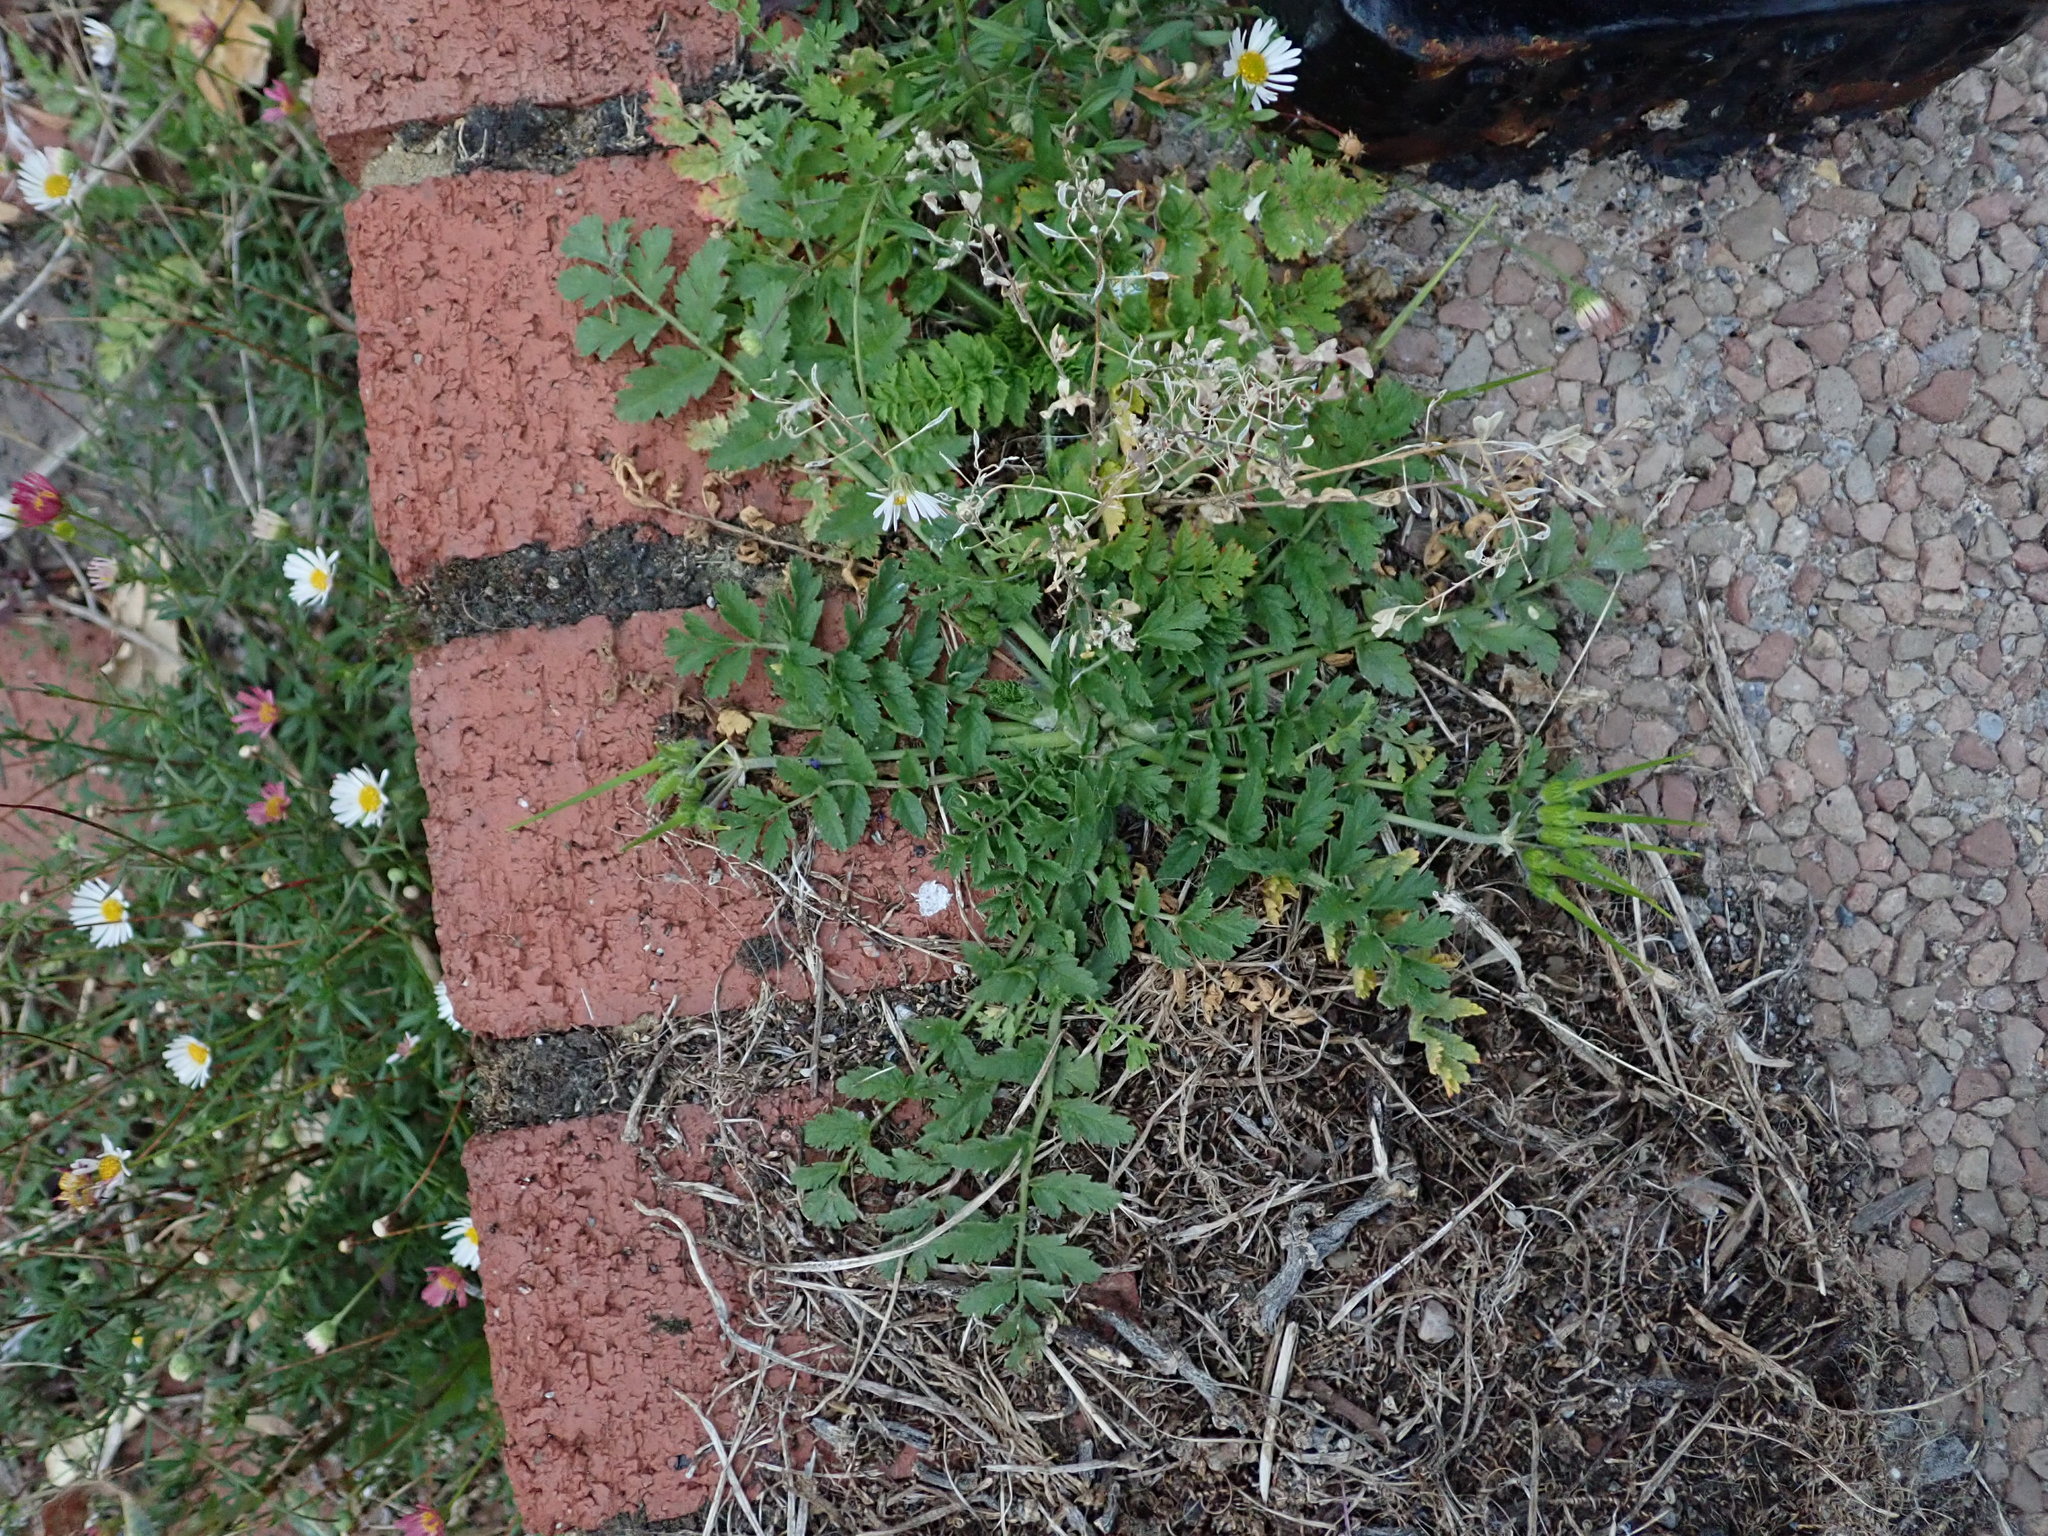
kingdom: Plantae
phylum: Tracheophyta
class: Magnoliopsida
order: Geraniales
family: Geraniaceae
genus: Erodium
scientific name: Erodium moschatum
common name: Musk stork's-bill
